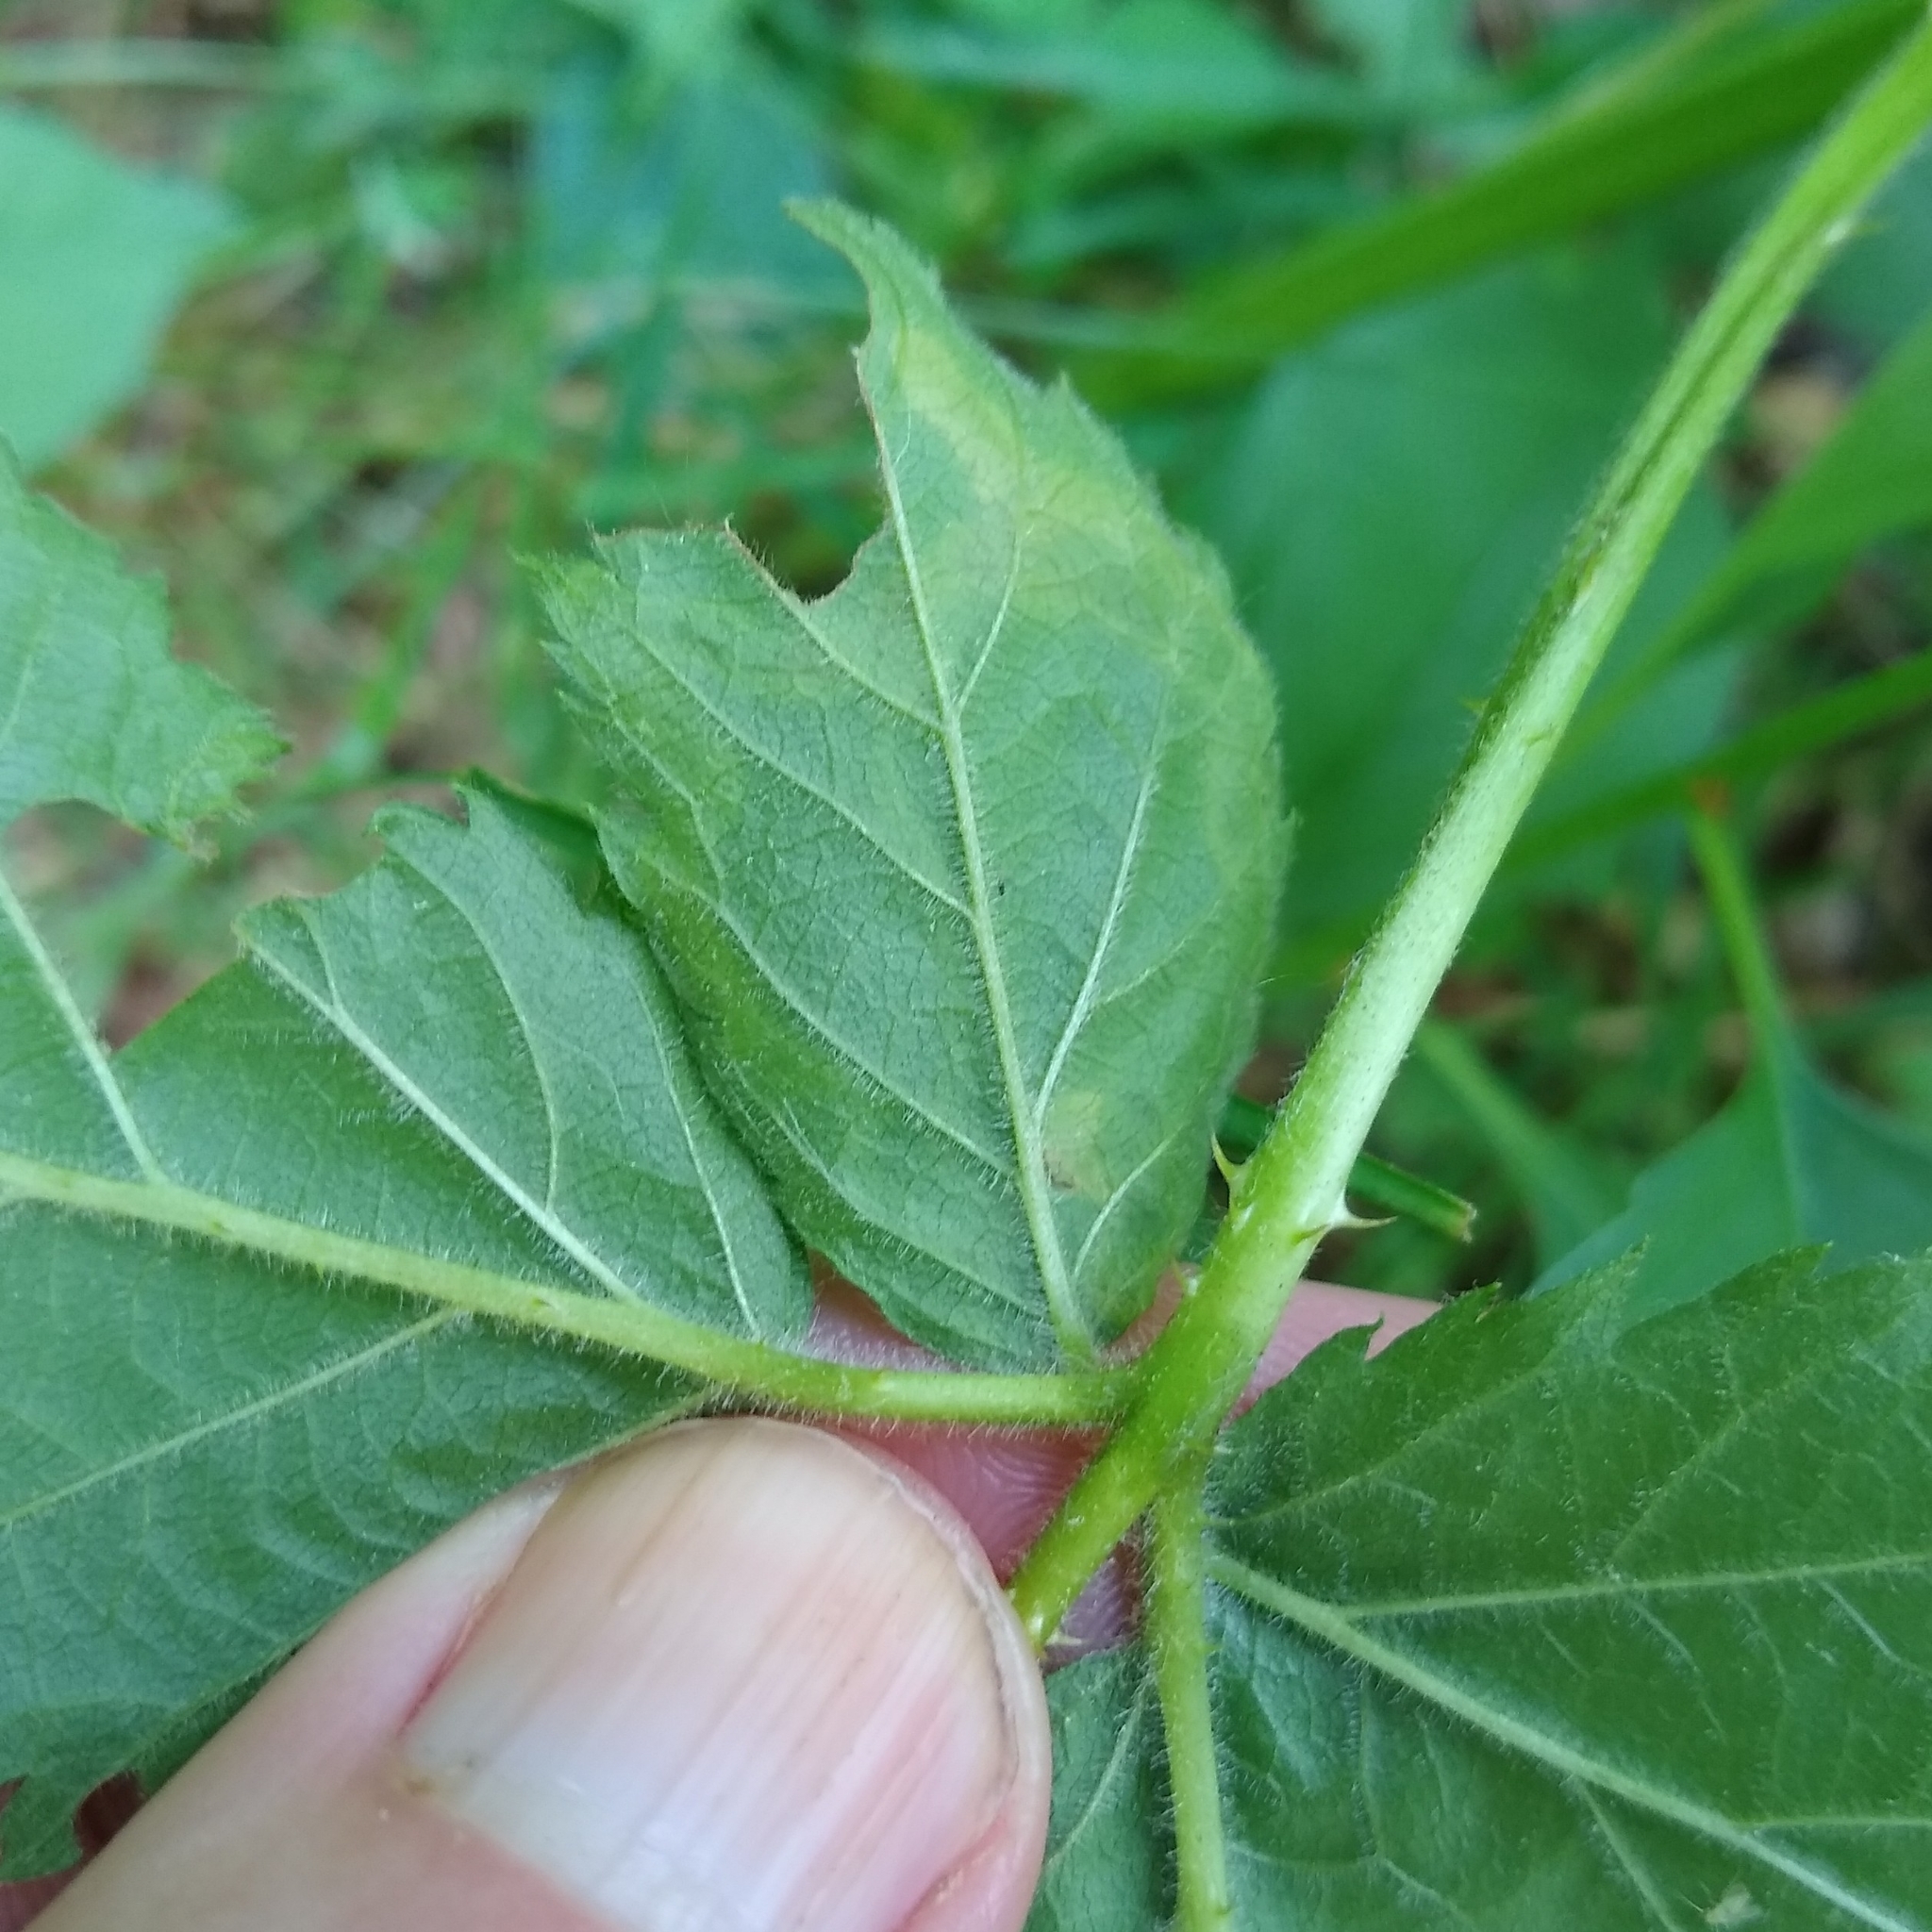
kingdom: Animalia
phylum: Arthropoda
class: Insecta
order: Diptera
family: Agromyzidae
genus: Agromyza
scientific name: Agromyza vockerothi
